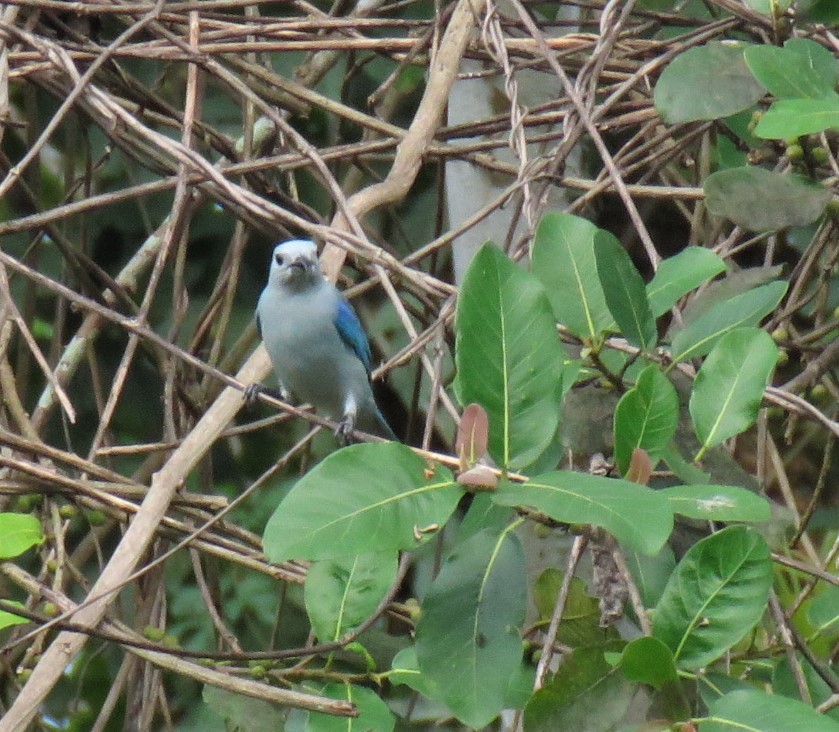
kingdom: Animalia
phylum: Chordata
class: Aves
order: Passeriformes
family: Thraupidae
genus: Thraupis
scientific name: Thraupis episcopus
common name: Blue-grey tanager
